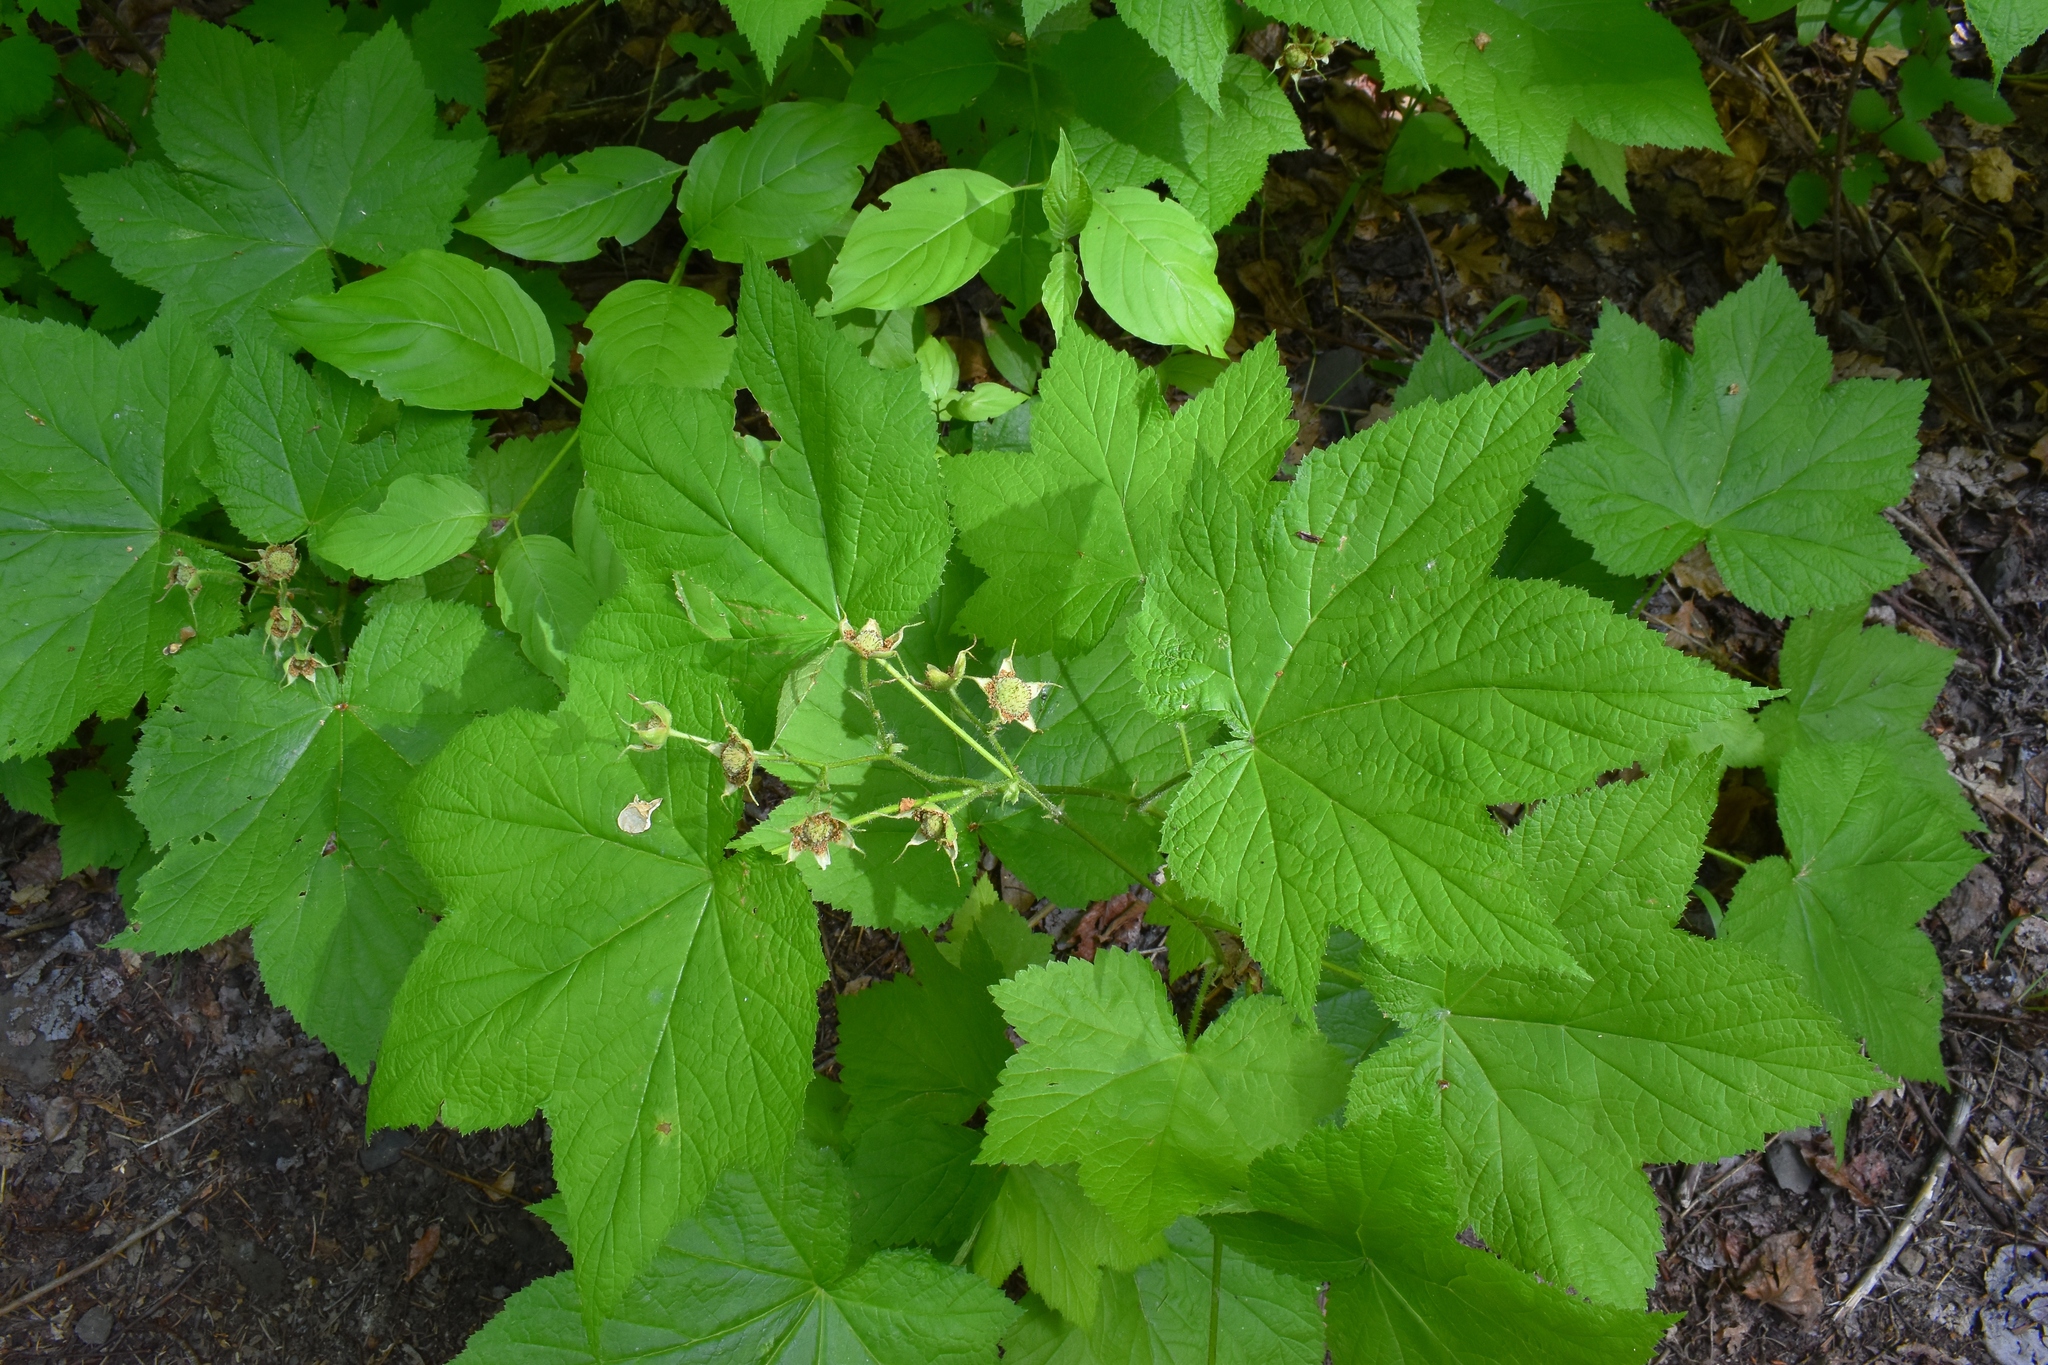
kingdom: Plantae
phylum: Tracheophyta
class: Magnoliopsida
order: Rosales
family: Rosaceae
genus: Rubus
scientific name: Rubus parviflorus
